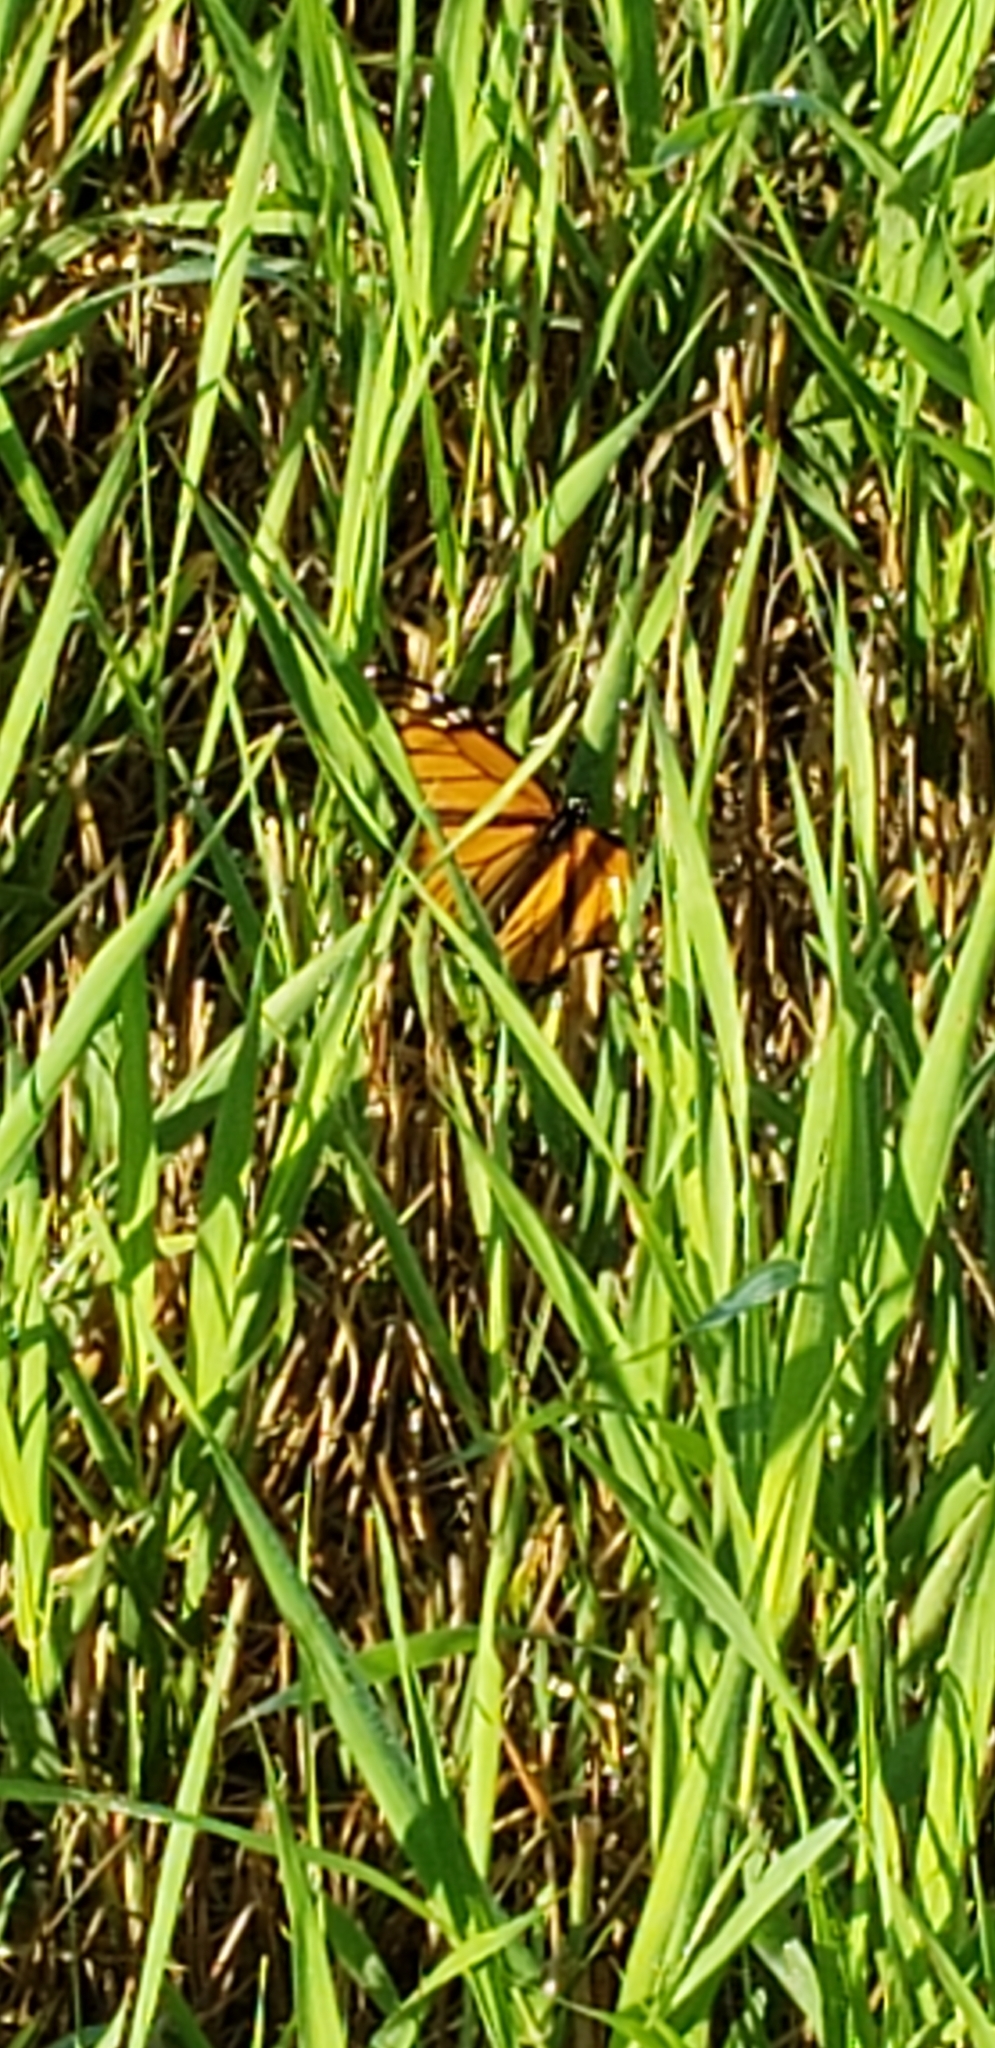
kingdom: Animalia
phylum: Arthropoda
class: Insecta
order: Lepidoptera
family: Nymphalidae
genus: Danaus
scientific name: Danaus plexippus
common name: Monarch
